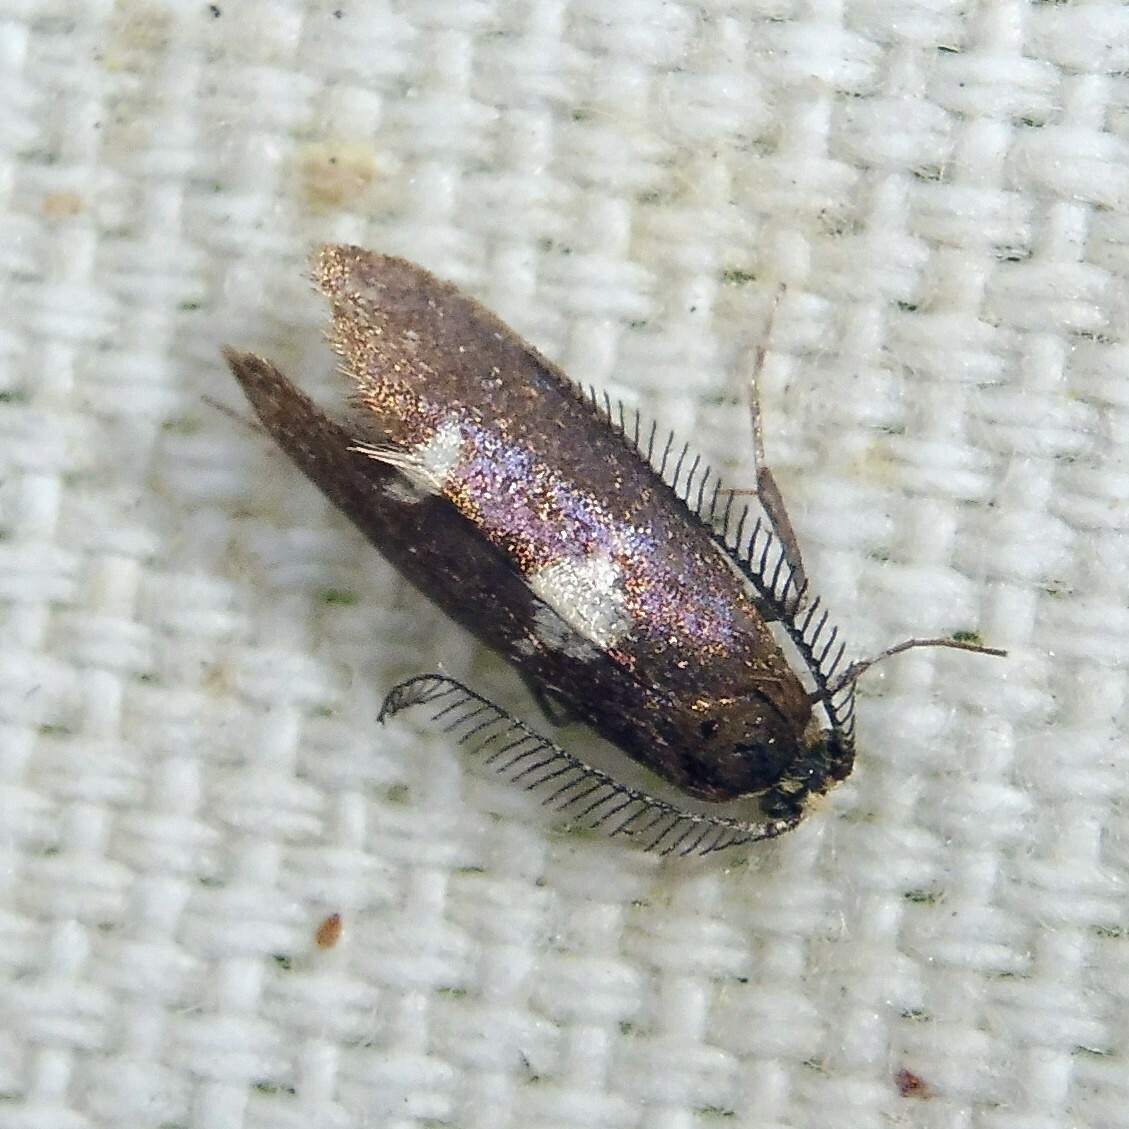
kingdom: Animalia
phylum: Arthropoda
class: Insecta
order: Lepidoptera
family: Incurvariidae
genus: Incurvaria
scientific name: Incurvaria masculella
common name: Feathered leaf-cutter
